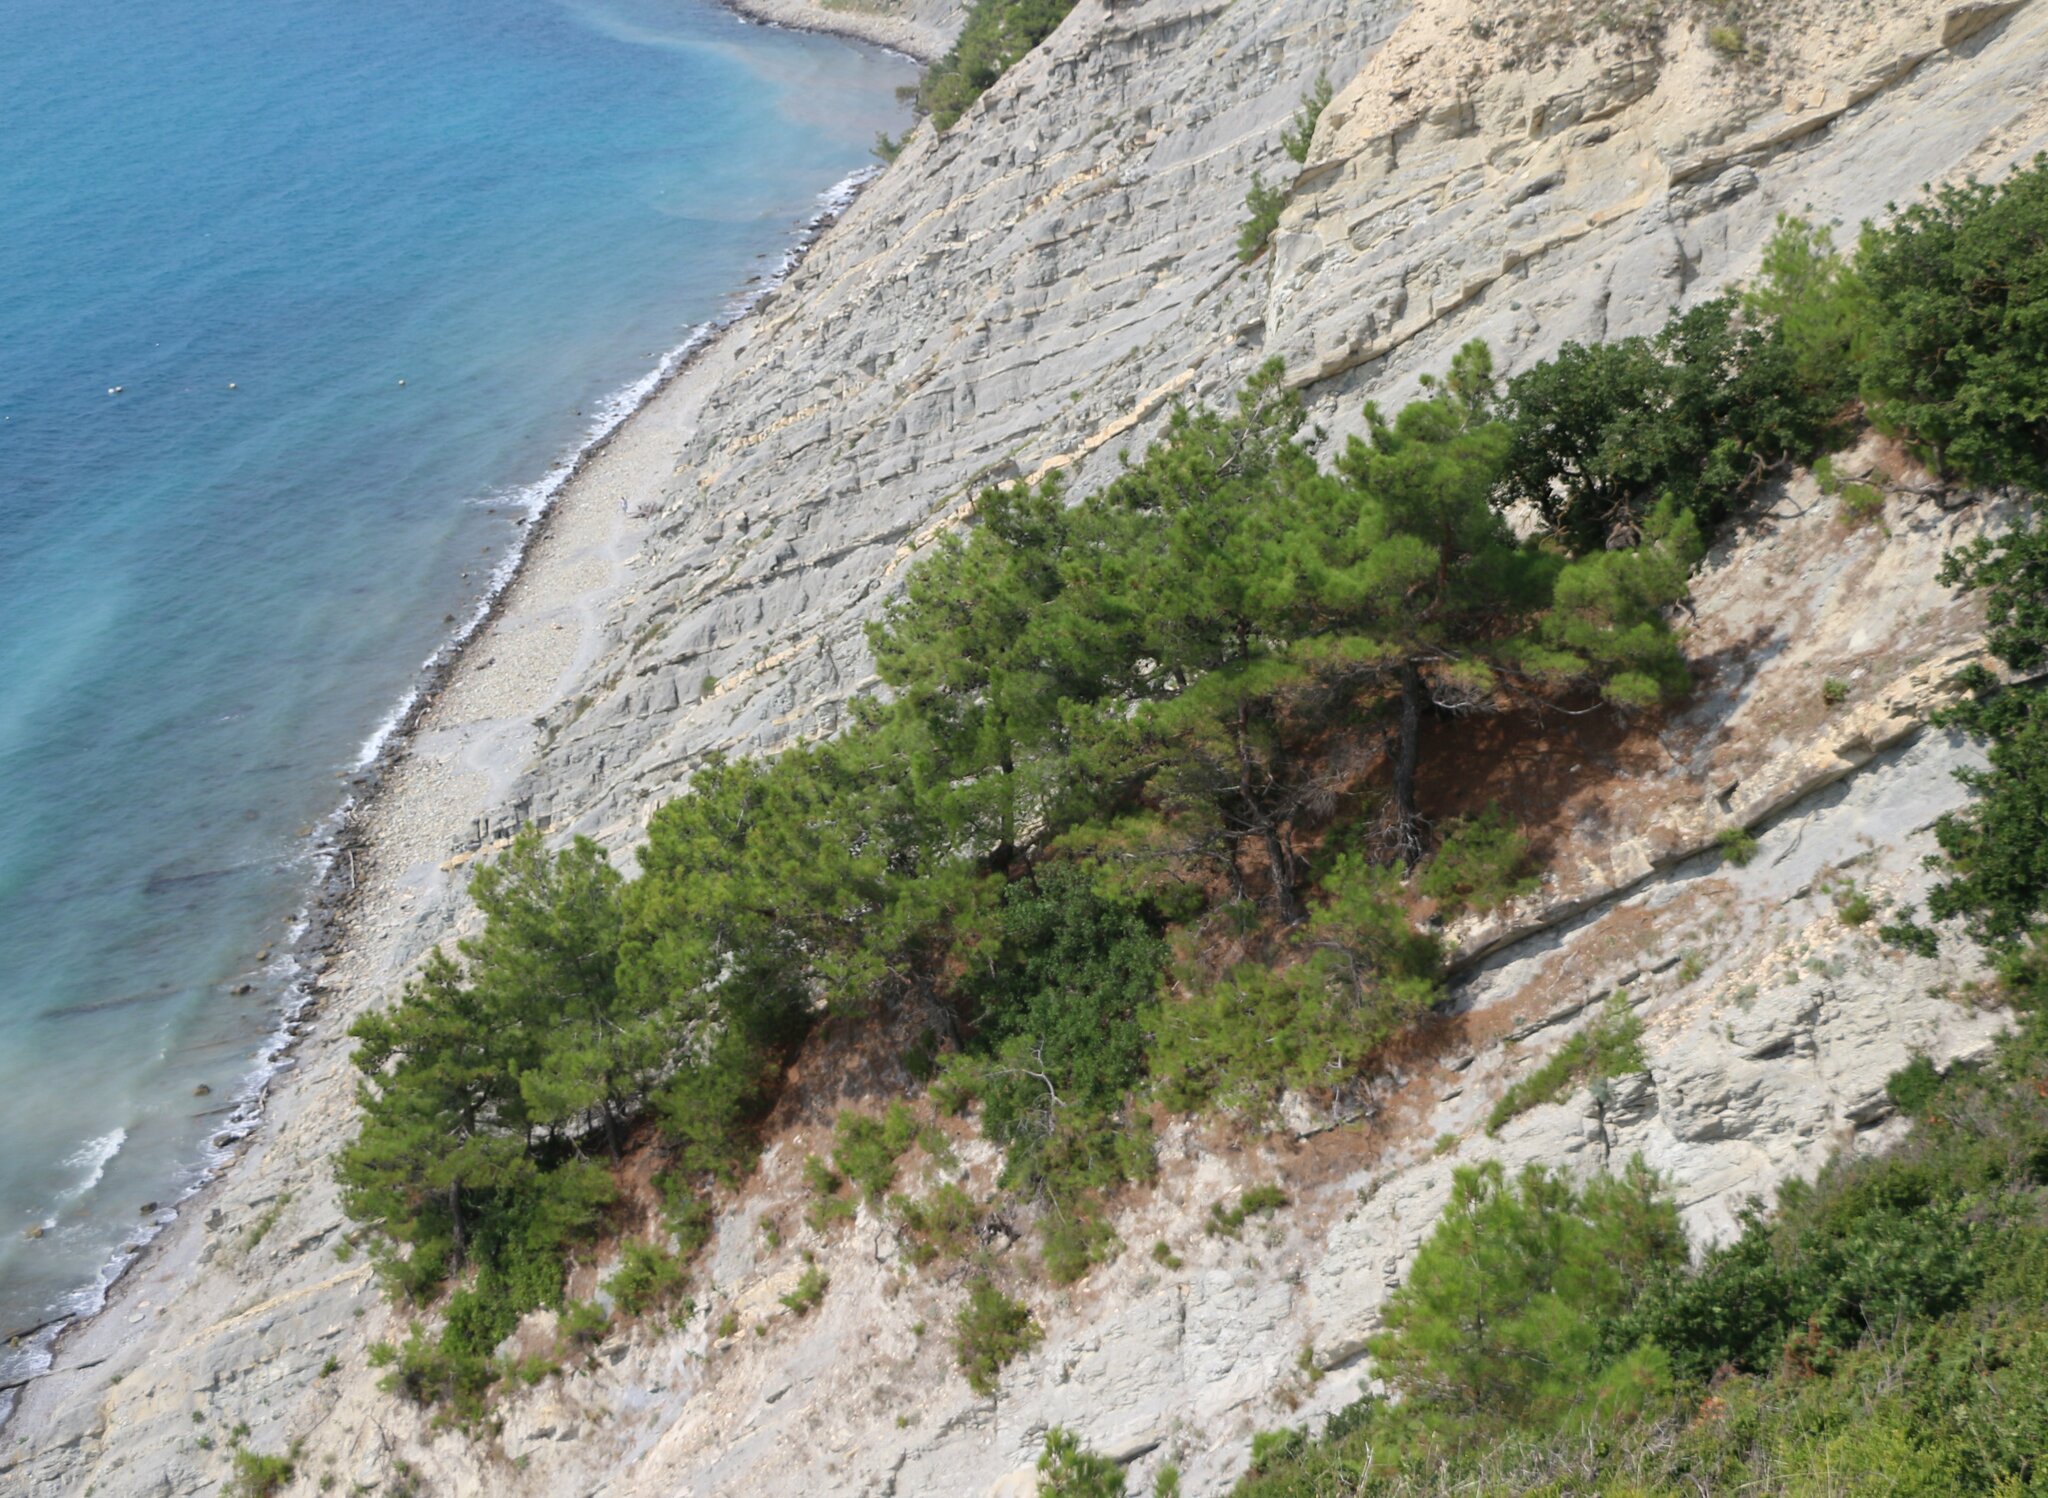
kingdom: Plantae
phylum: Tracheophyta
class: Pinopsida
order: Pinales
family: Pinaceae
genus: Pinus
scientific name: Pinus brutia
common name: Turkish pine
